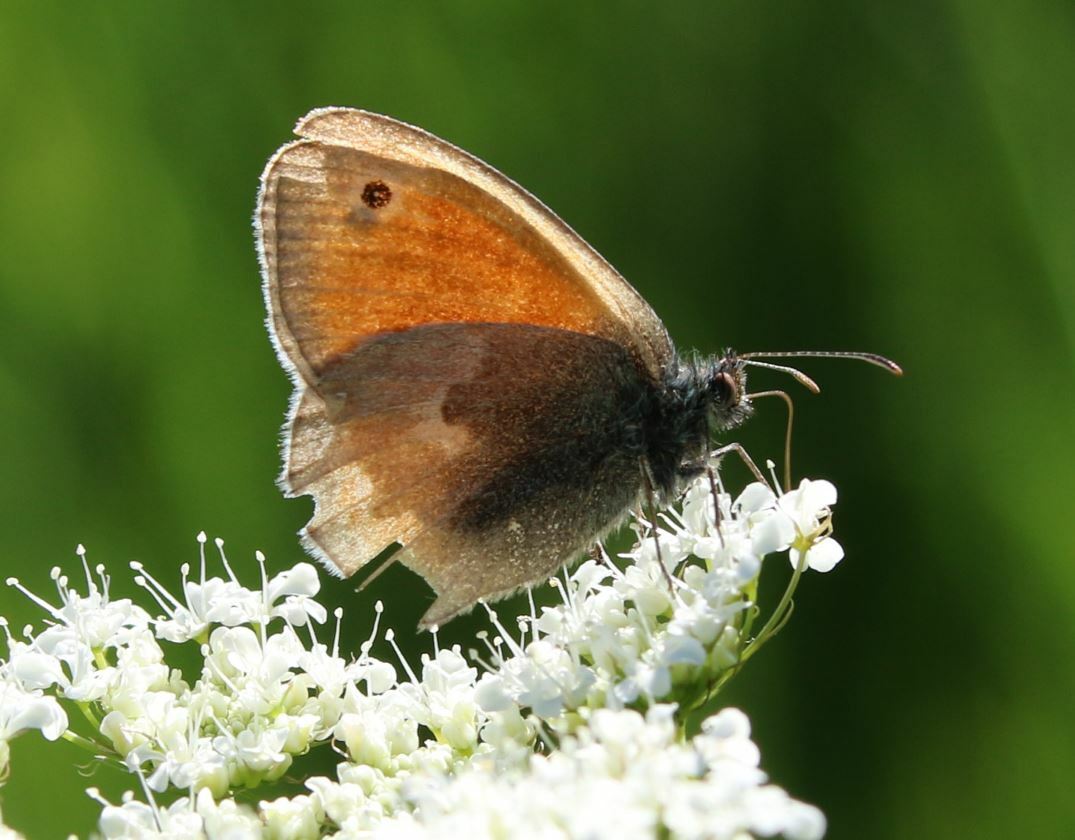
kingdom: Animalia
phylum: Arthropoda
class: Insecta
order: Lepidoptera
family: Nymphalidae
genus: Coenonympha
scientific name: Coenonympha pamphilus
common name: Small heath
